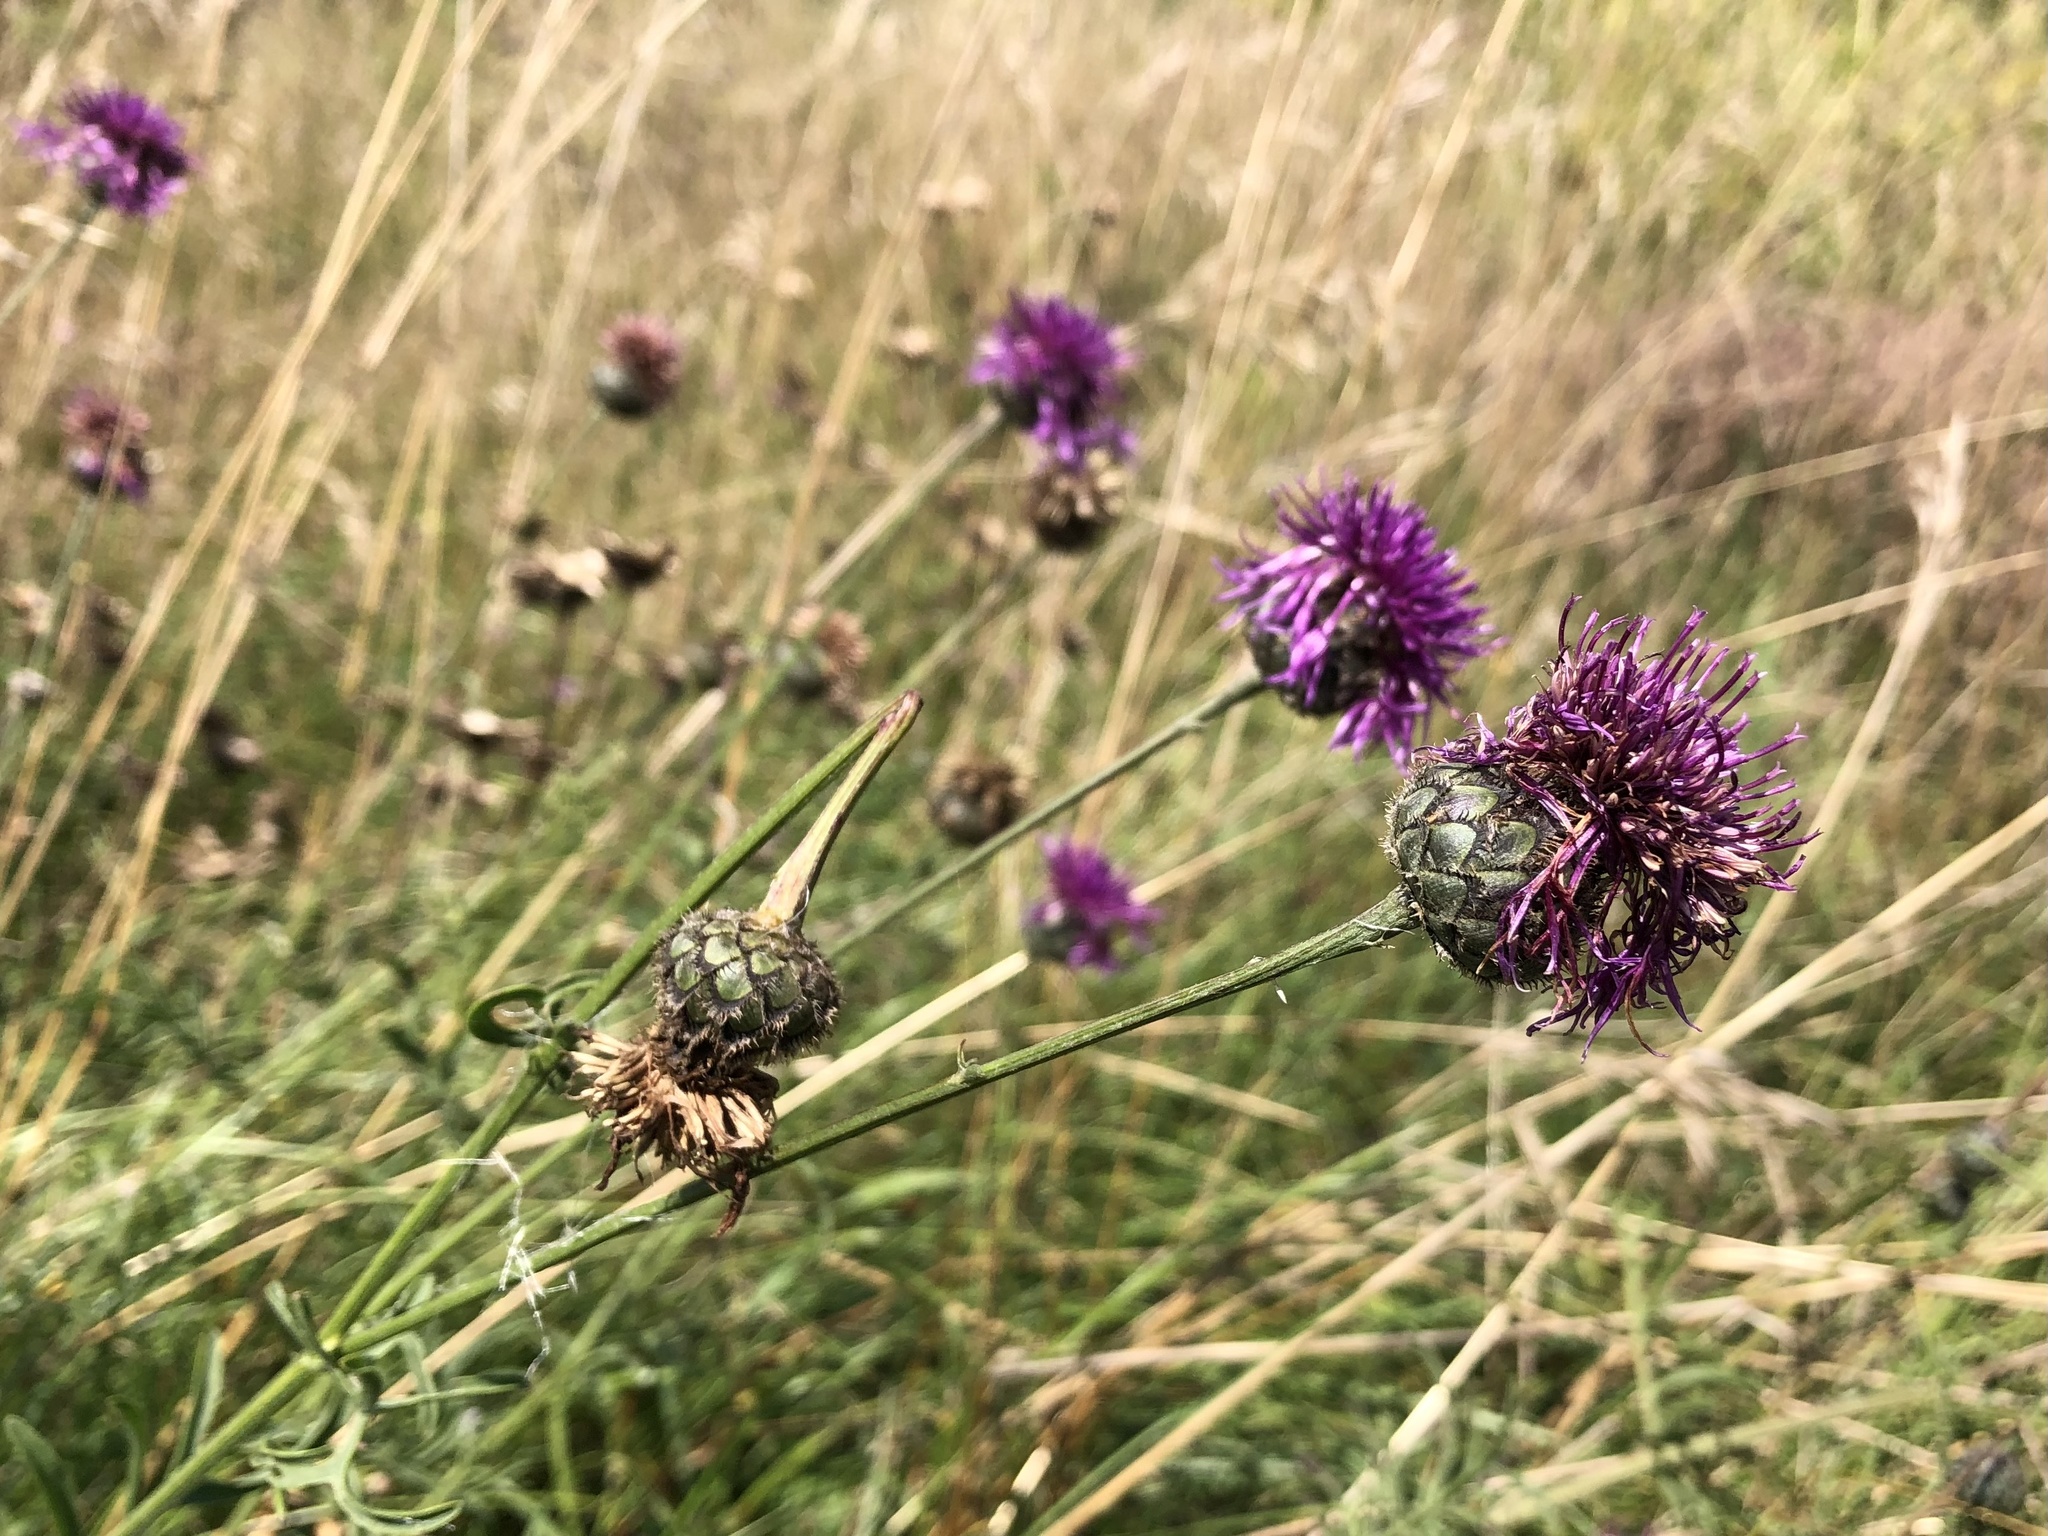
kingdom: Plantae
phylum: Tracheophyta
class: Magnoliopsida
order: Asterales
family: Asteraceae
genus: Centaurea
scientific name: Centaurea scabiosa
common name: Greater knapweed
